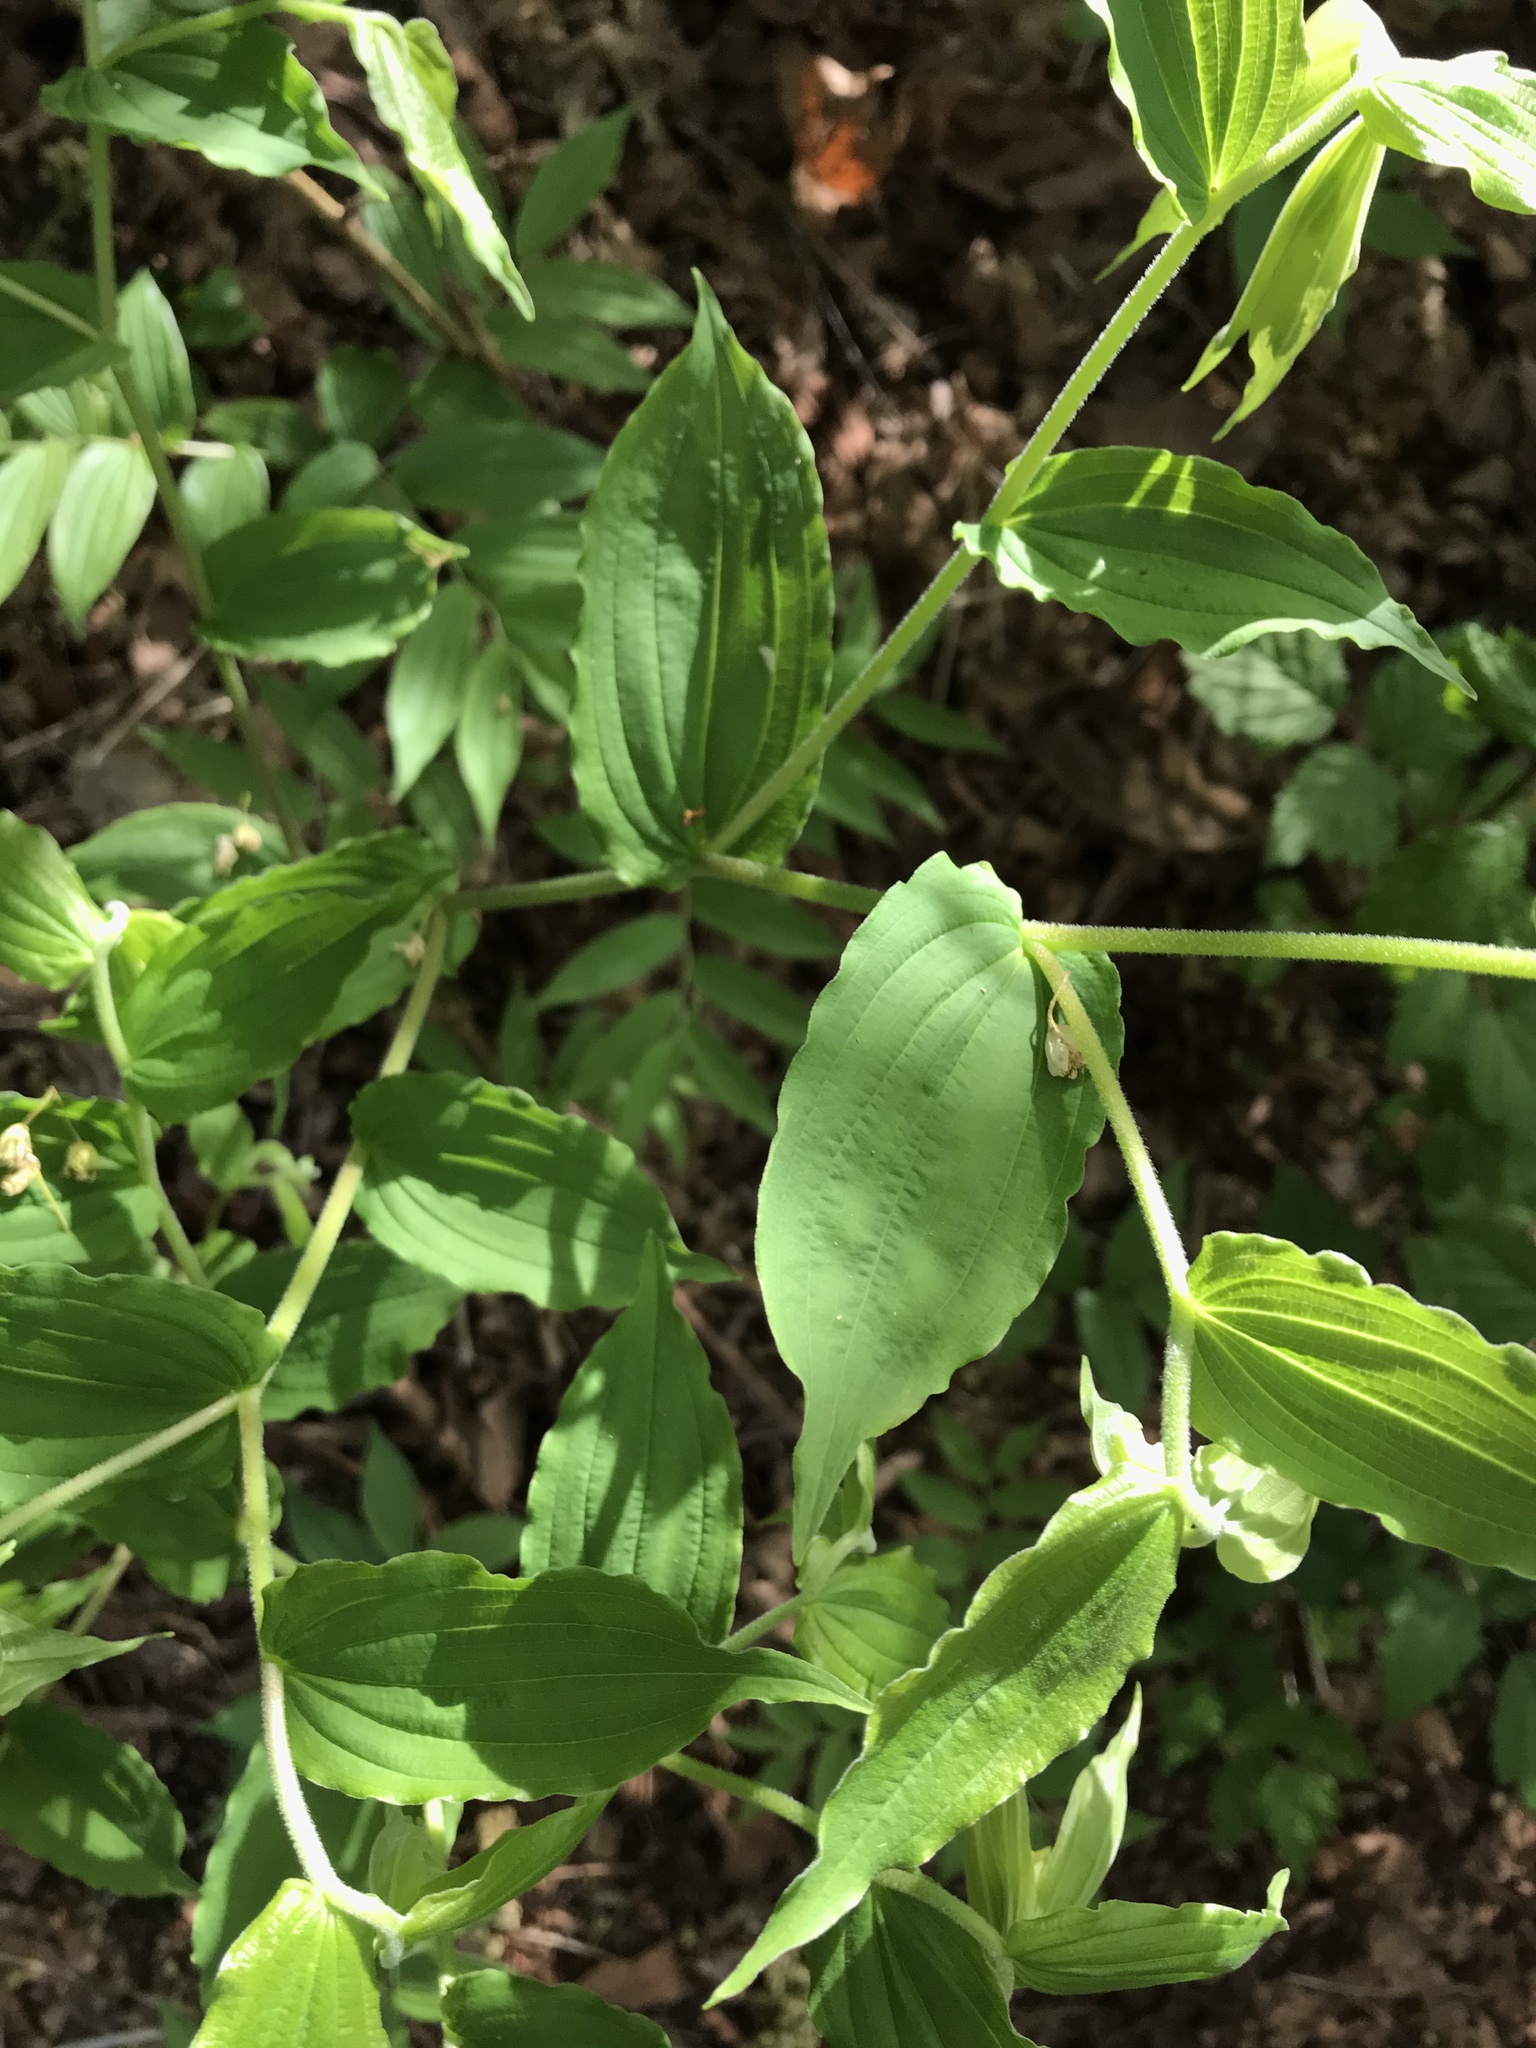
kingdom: Plantae
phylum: Tracheophyta
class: Liliopsida
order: Liliales
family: Liliaceae
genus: Prosartes
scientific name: Prosartes hookeri
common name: Fairy-bells
